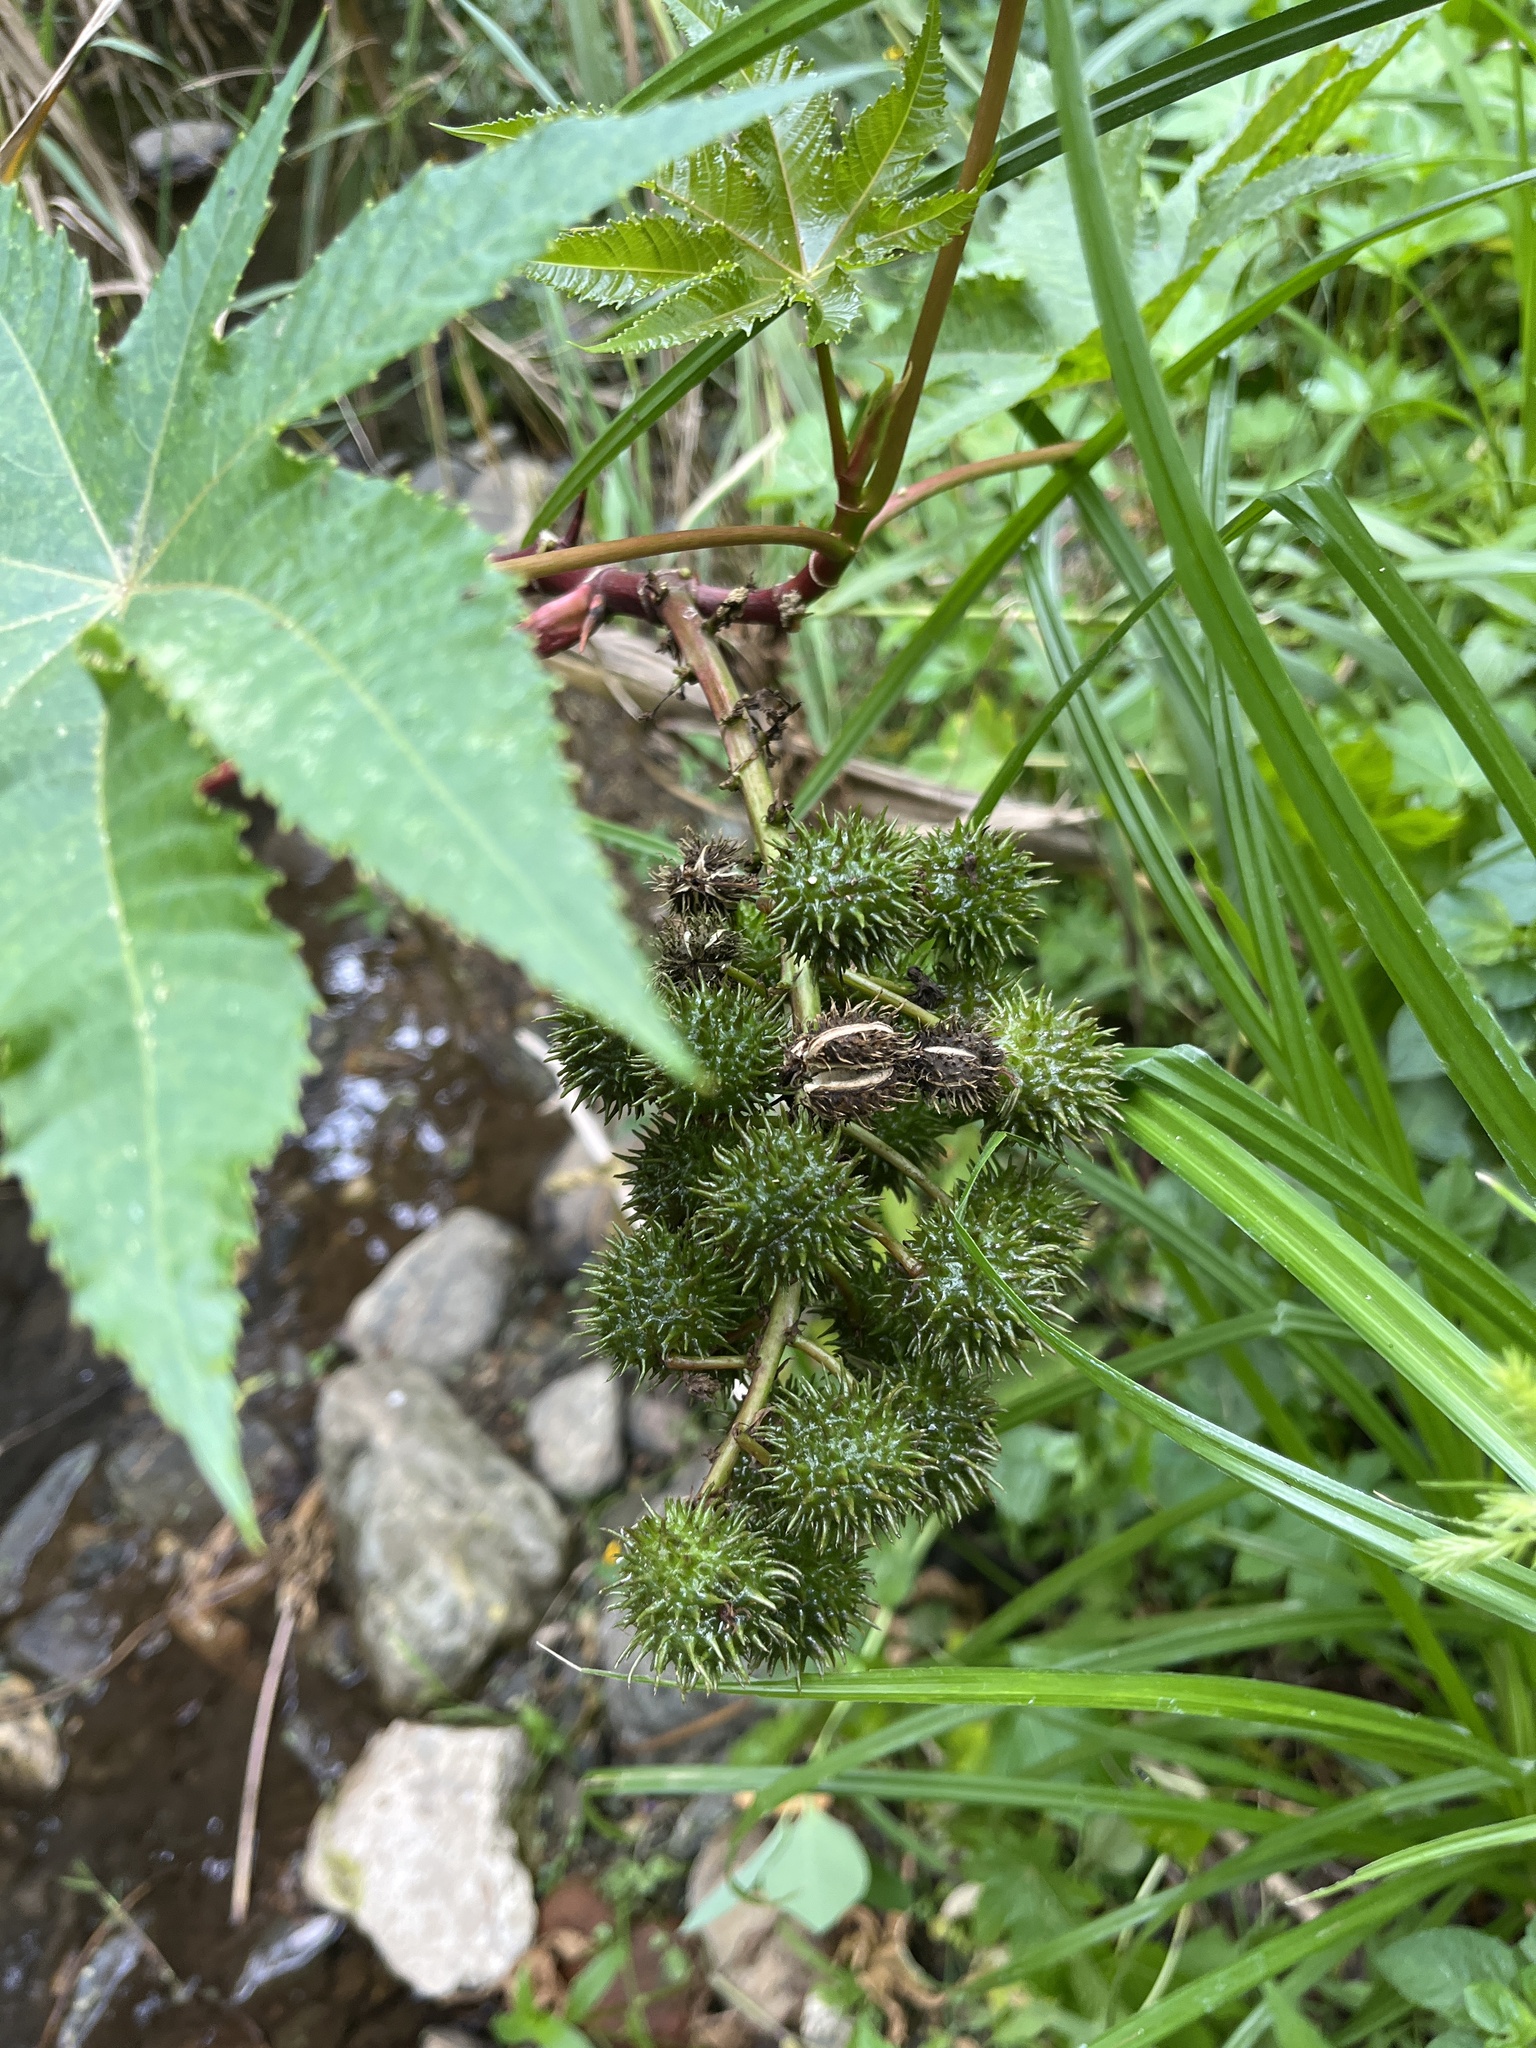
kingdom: Plantae
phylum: Tracheophyta
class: Magnoliopsida
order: Malpighiales
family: Euphorbiaceae
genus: Ricinus
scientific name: Ricinus communis
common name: Castor-oil-plant
